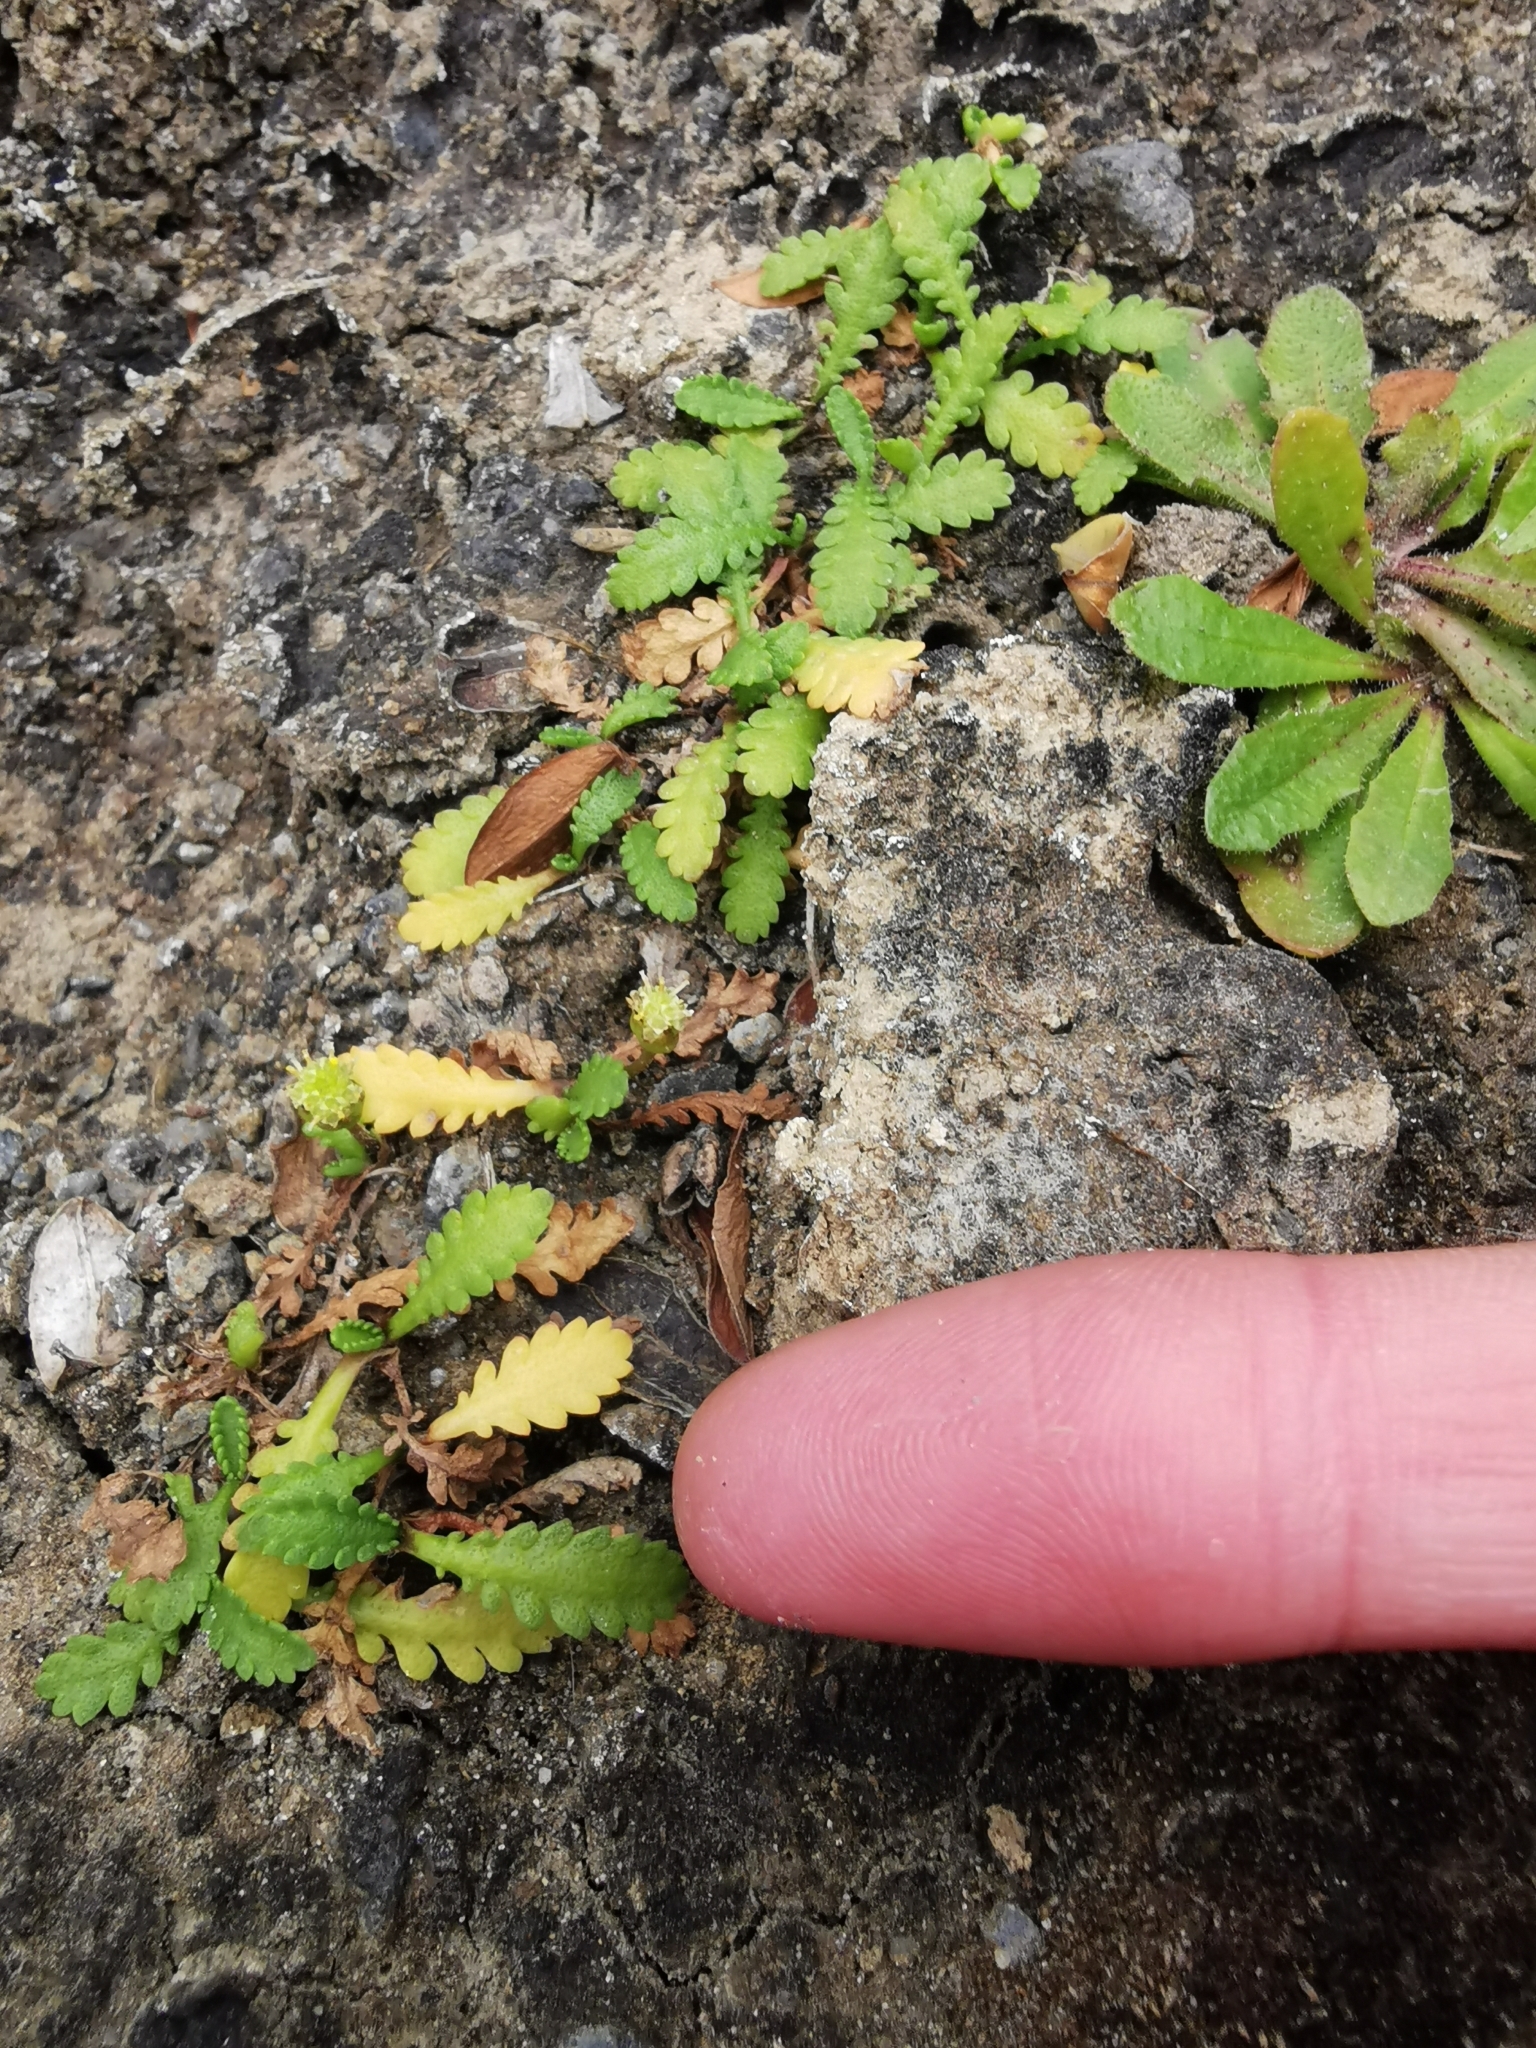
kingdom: Plantae
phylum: Tracheophyta
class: Magnoliopsida
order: Asterales
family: Asteraceae
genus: Leptinella
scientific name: Leptinella dioica
